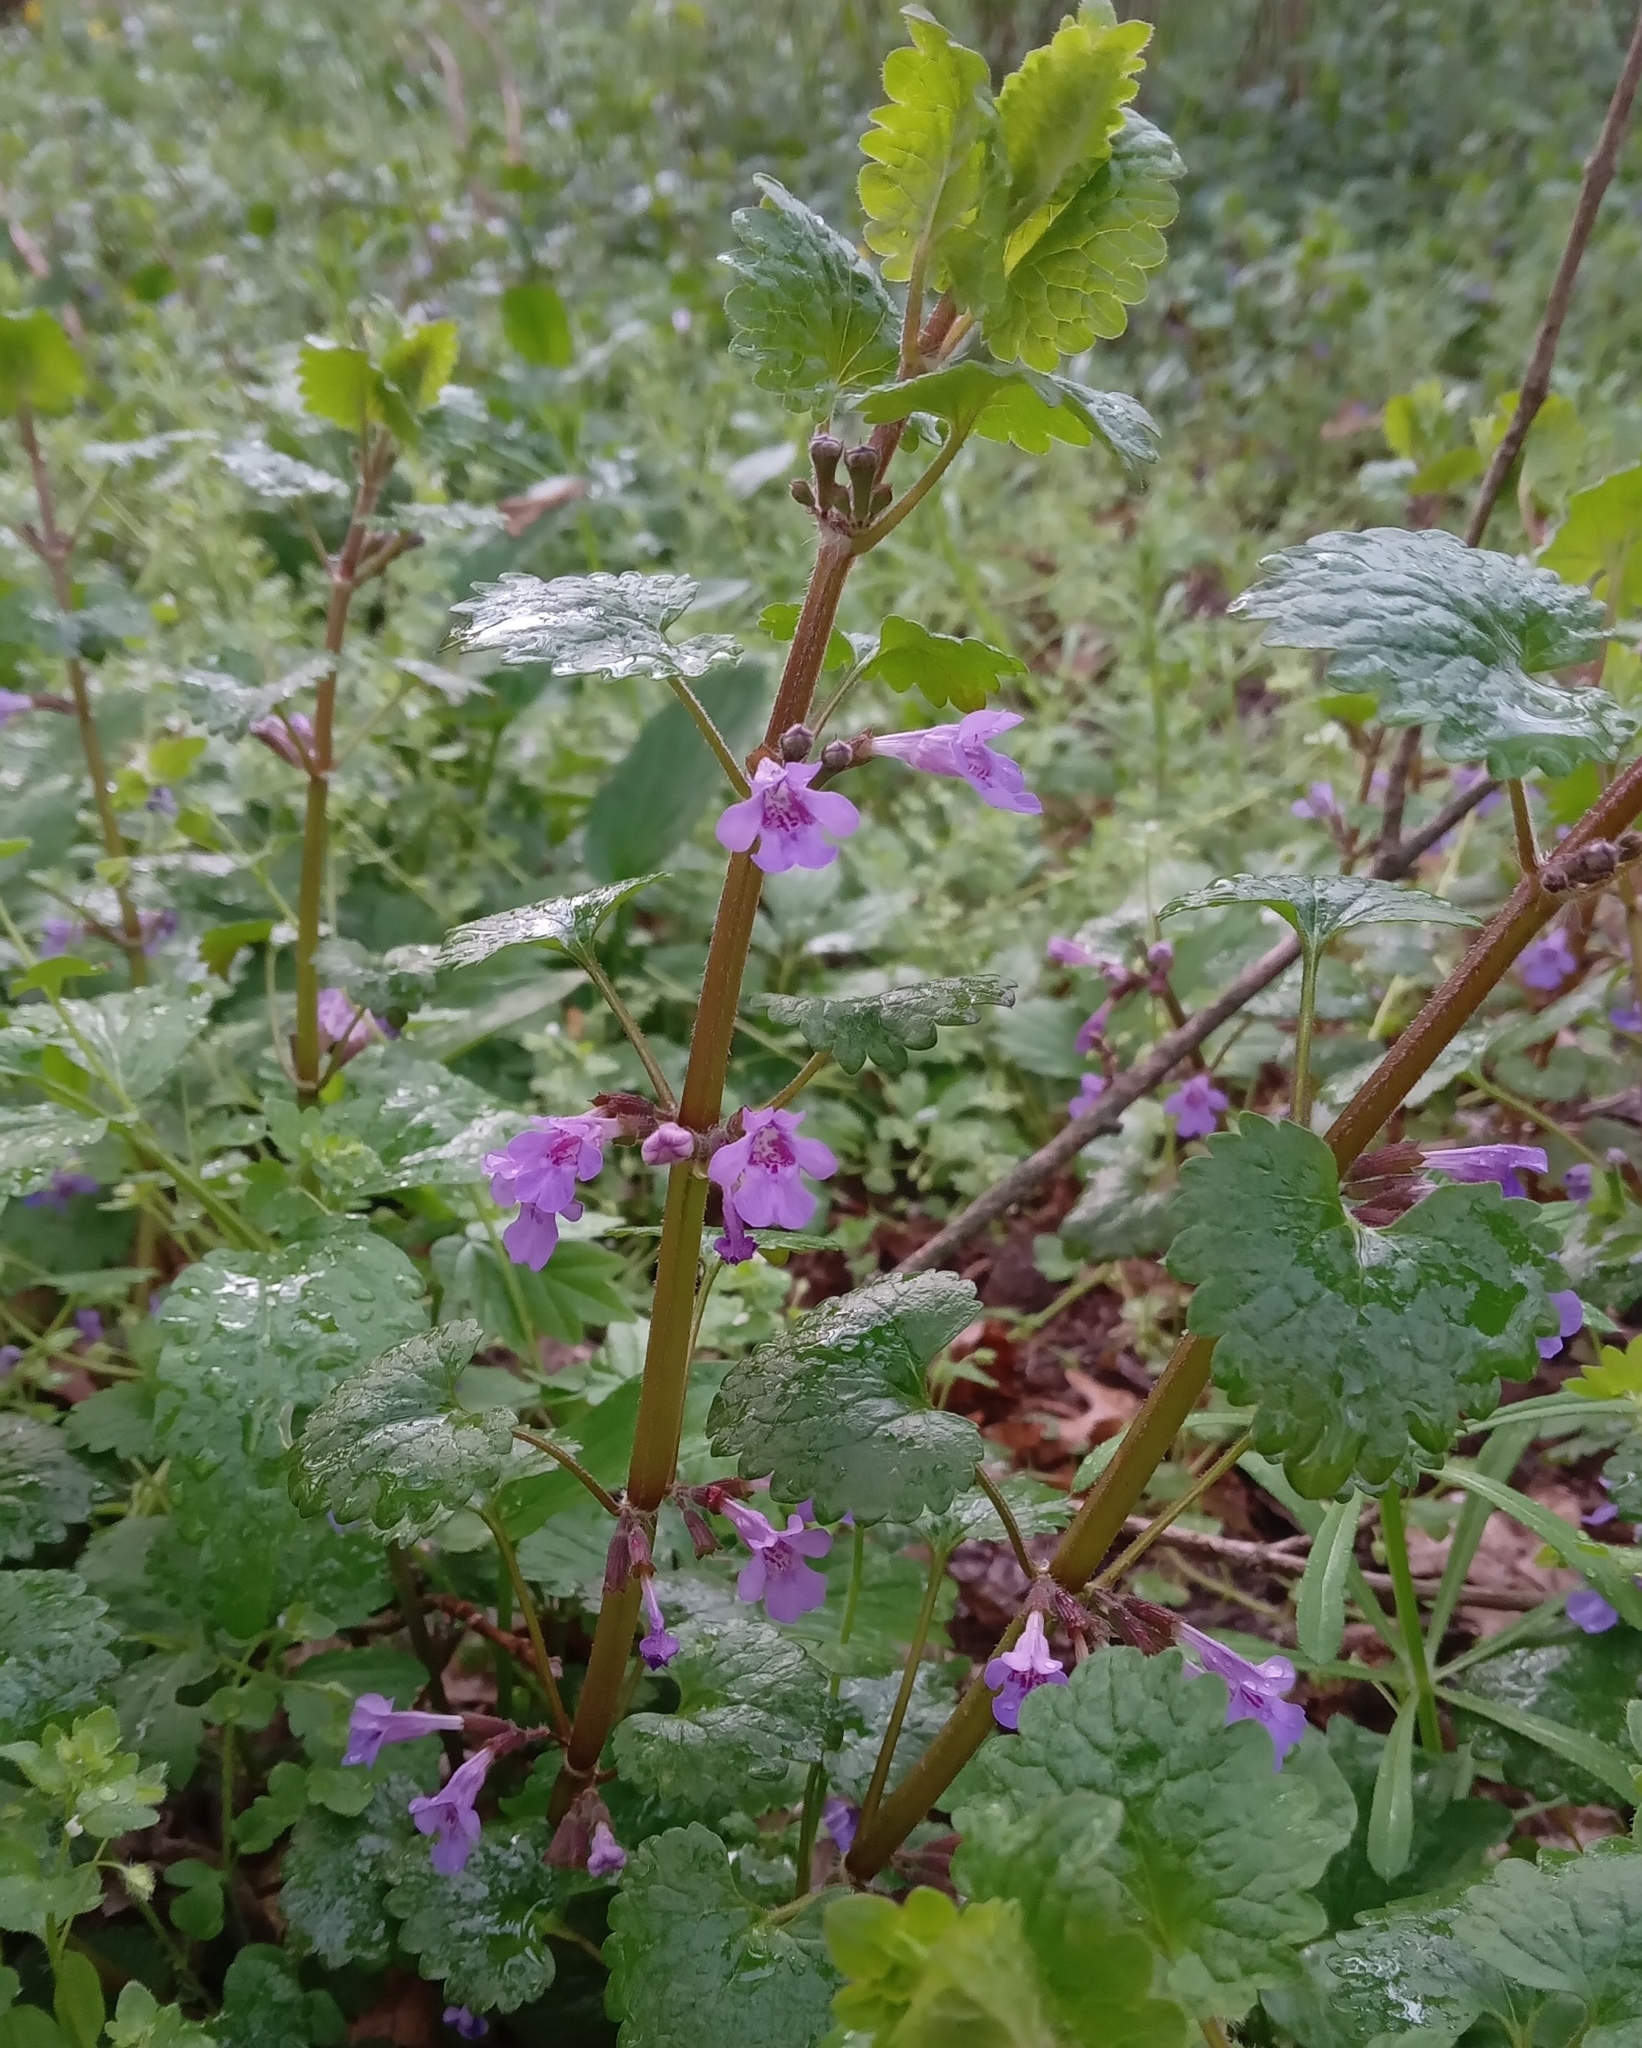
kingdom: Plantae
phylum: Tracheophyta
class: Magnoliopsida
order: Lamiales
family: Lamiaceae
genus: Glechoma
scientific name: Glechoma hederacea
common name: Ground ivy
